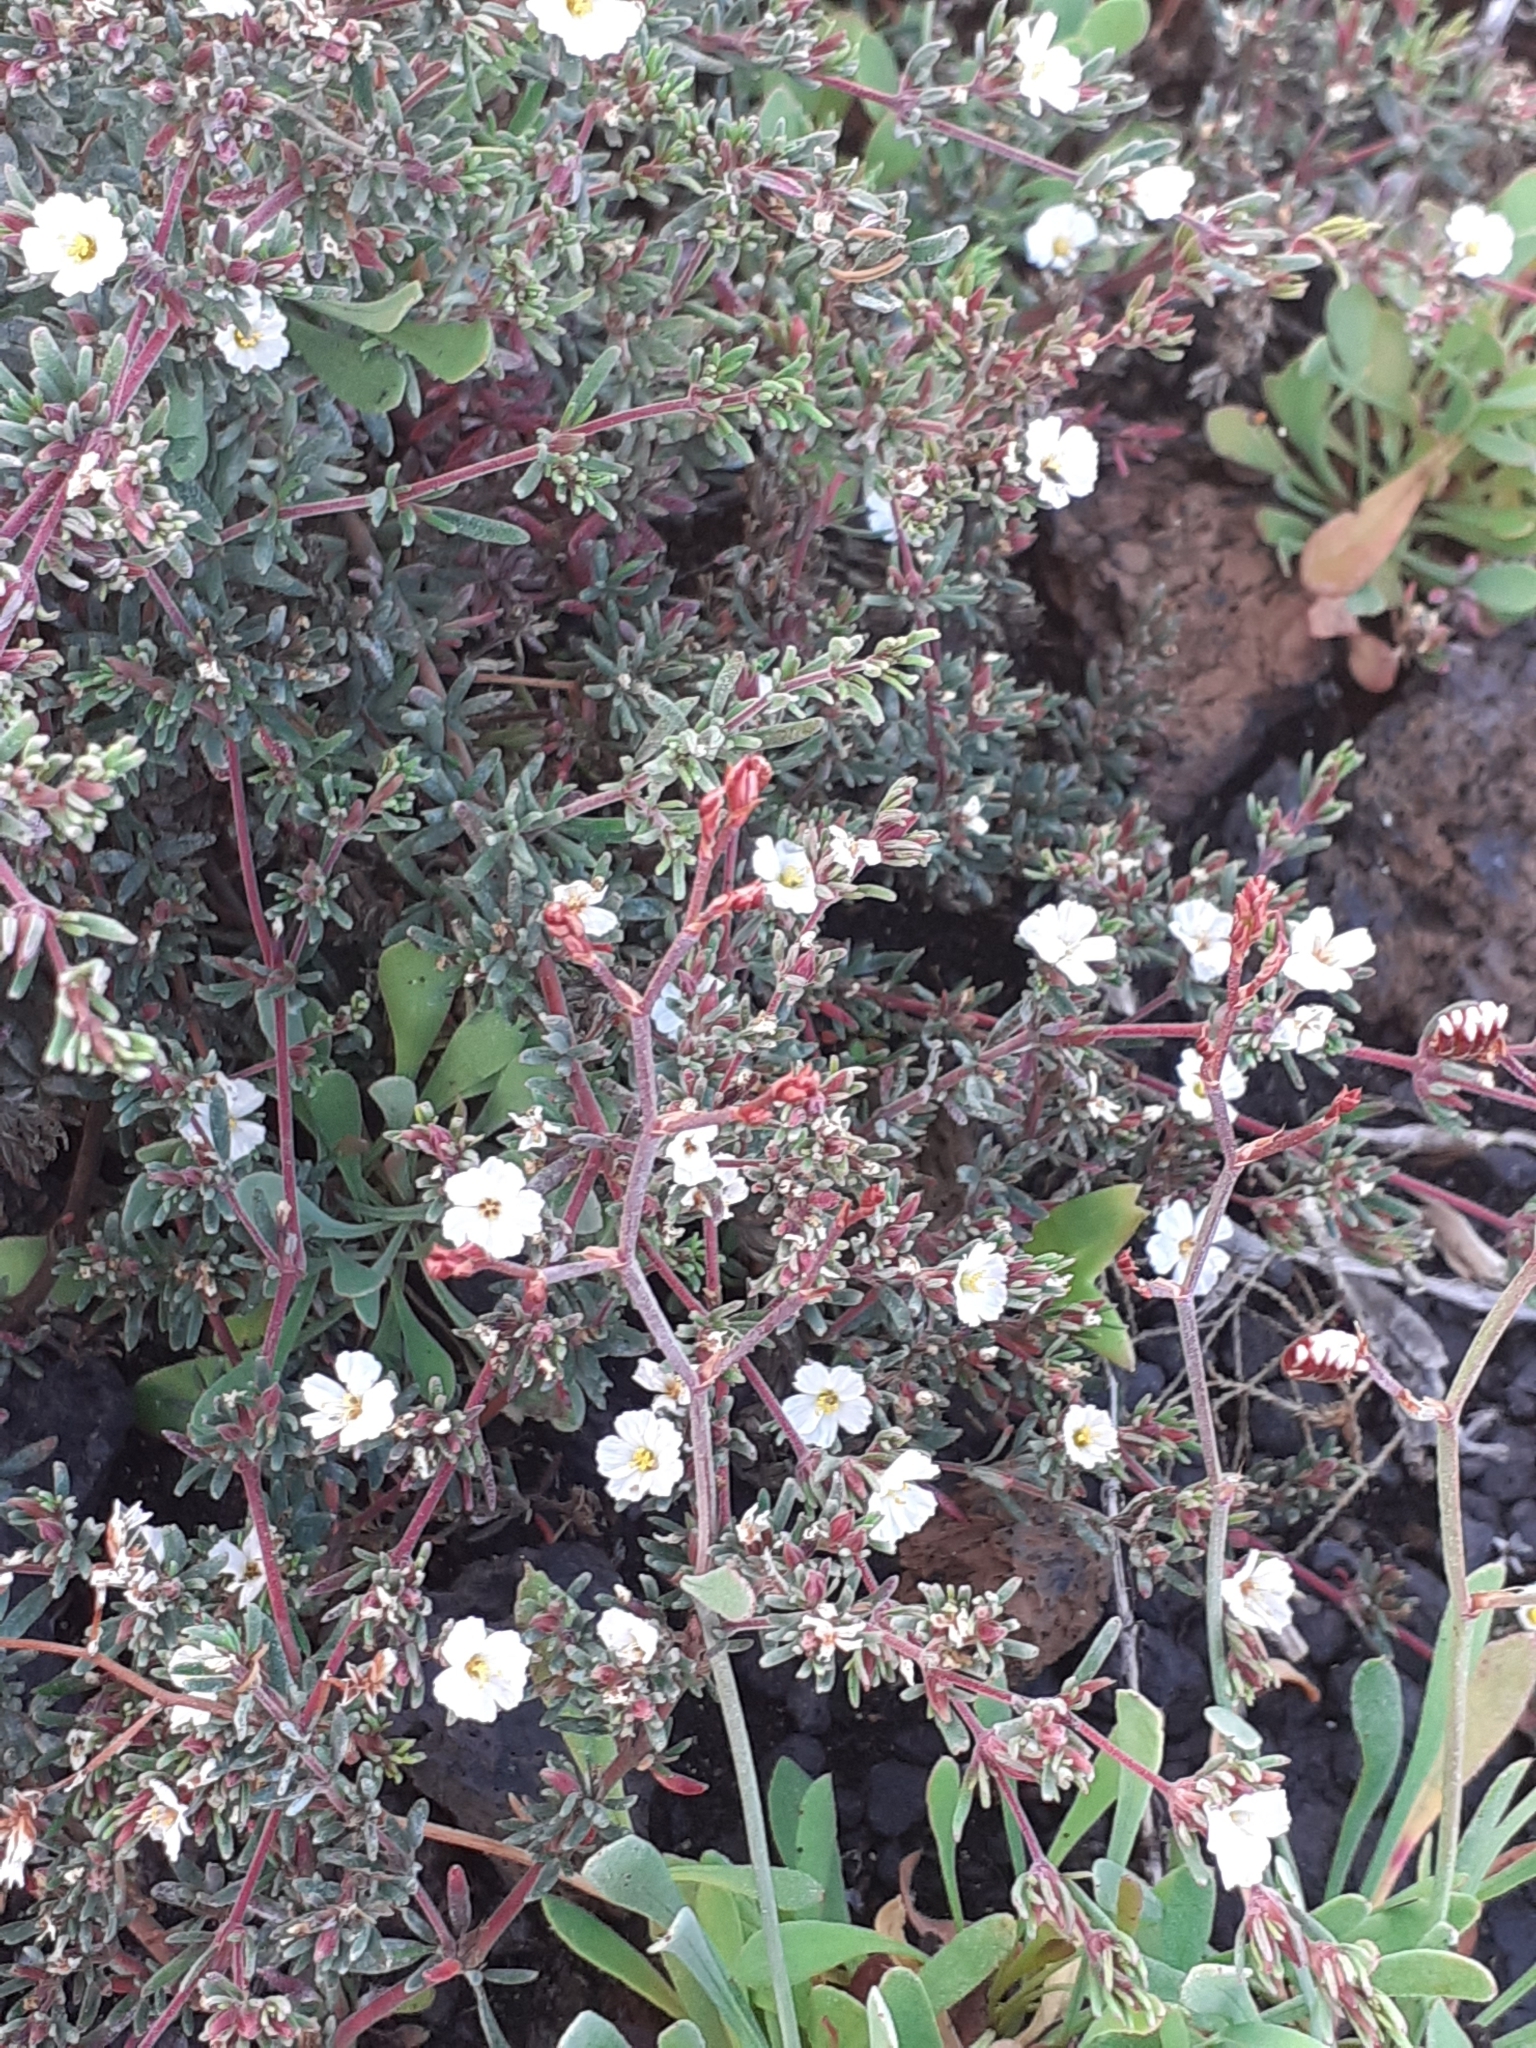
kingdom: Plantae
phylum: Tracheophyta
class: Magnoliopsida
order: Caryophyllales
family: Frankeniaceae
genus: Frankenia
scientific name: Frankenia capitata
